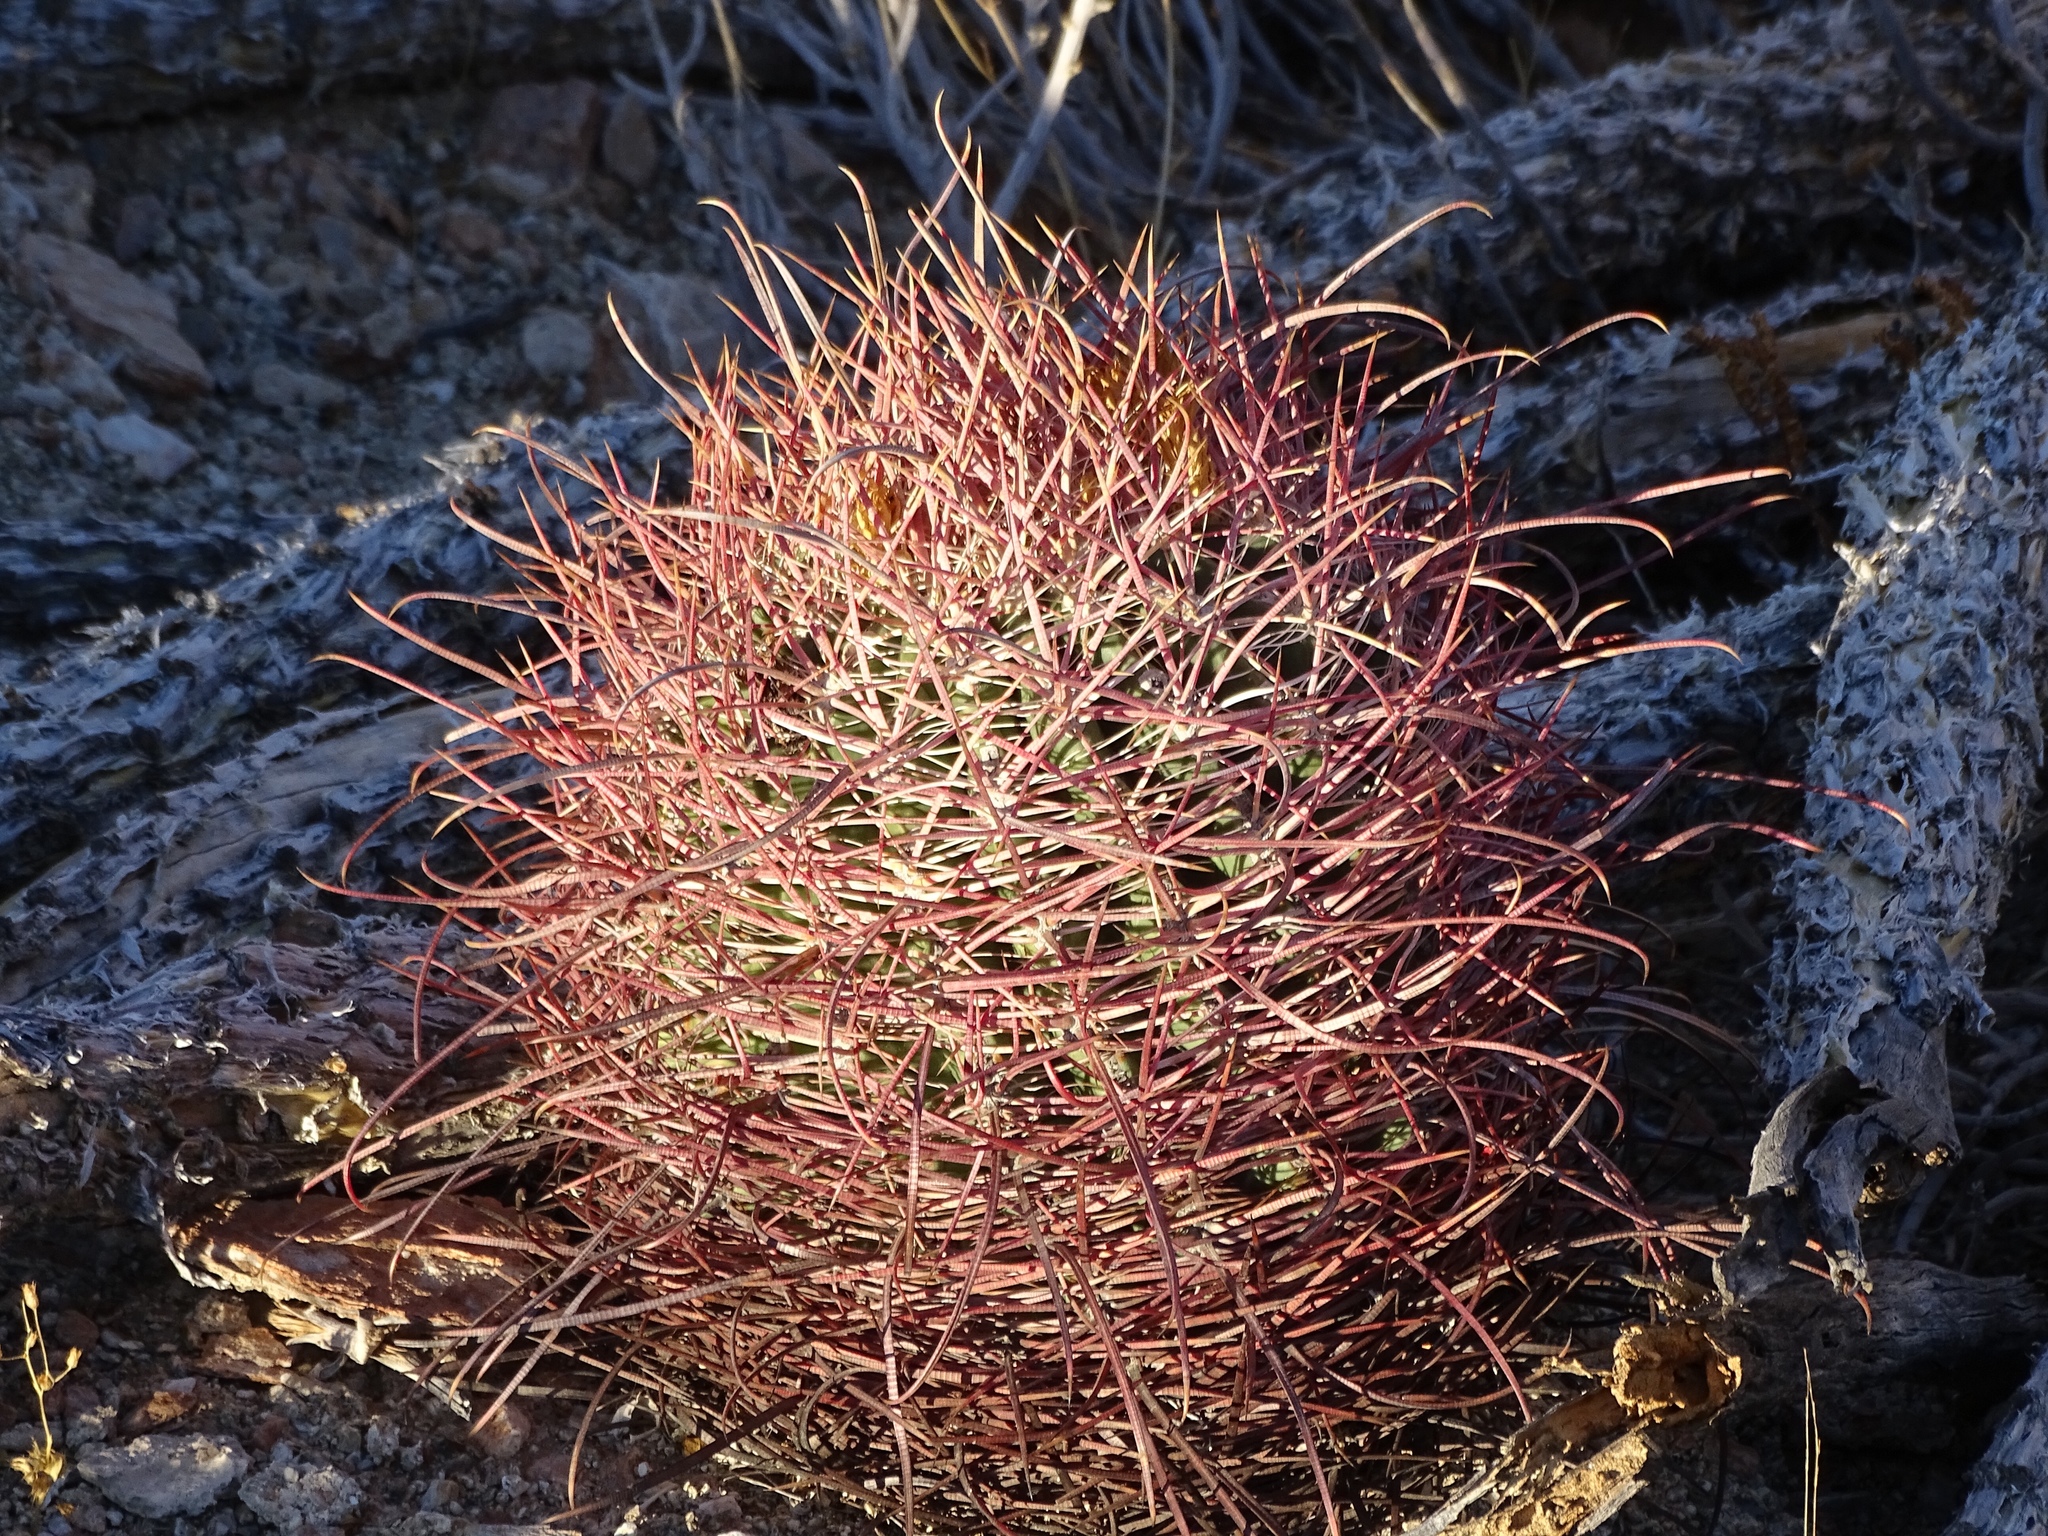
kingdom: Plantae
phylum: Tracheophyta
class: Magnoliopsida
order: Caryophyllales
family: Cactaceae
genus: Ferocactus
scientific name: Ferocactus cylindraceus
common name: California barrel cactus
